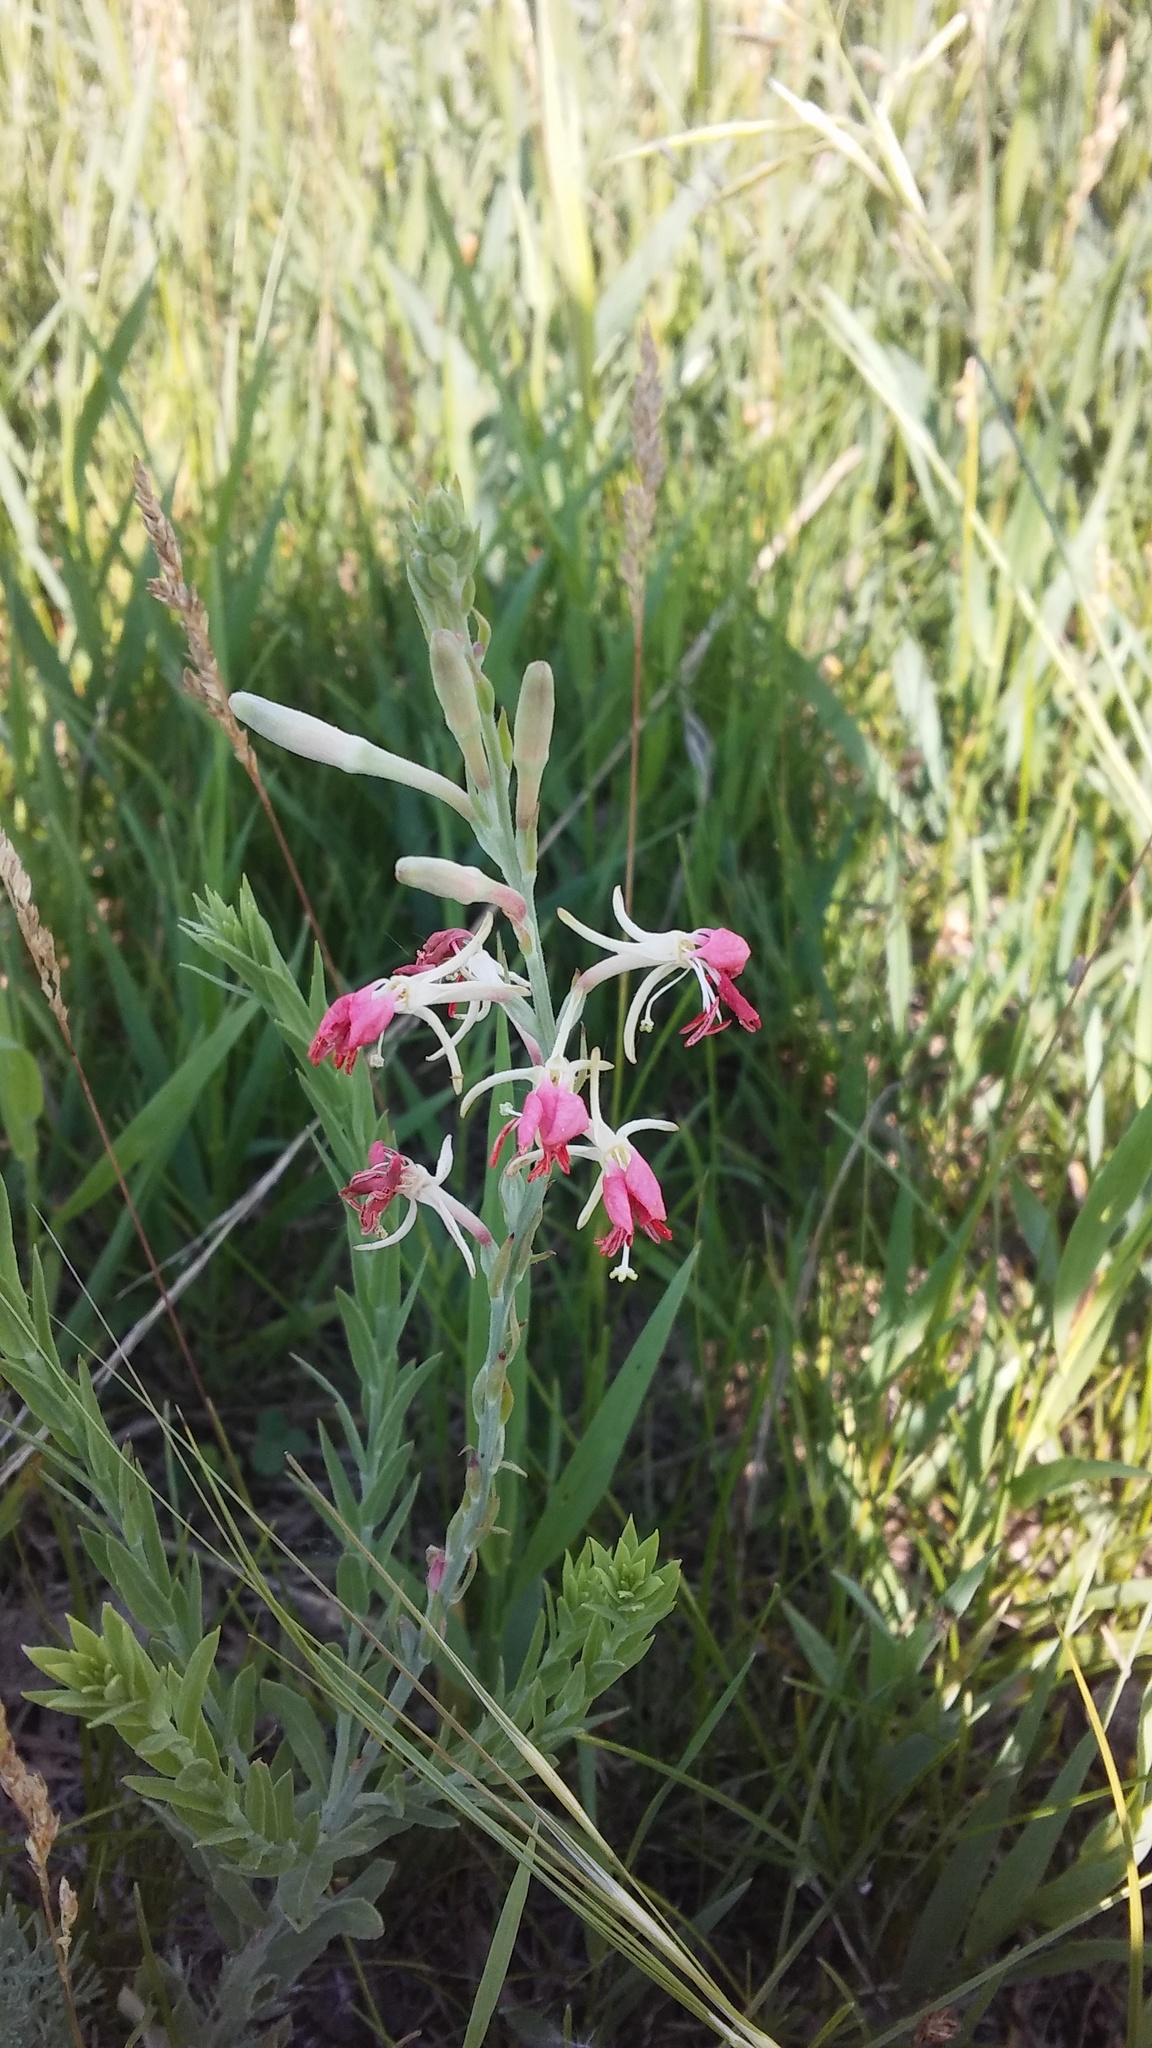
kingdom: Plantae
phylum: Tracheophyta
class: Magnoliopsida
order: Myrtales
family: Onagraceae
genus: Oenothera
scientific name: Oenothera suffrutescens
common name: Scarlet beeblossom
